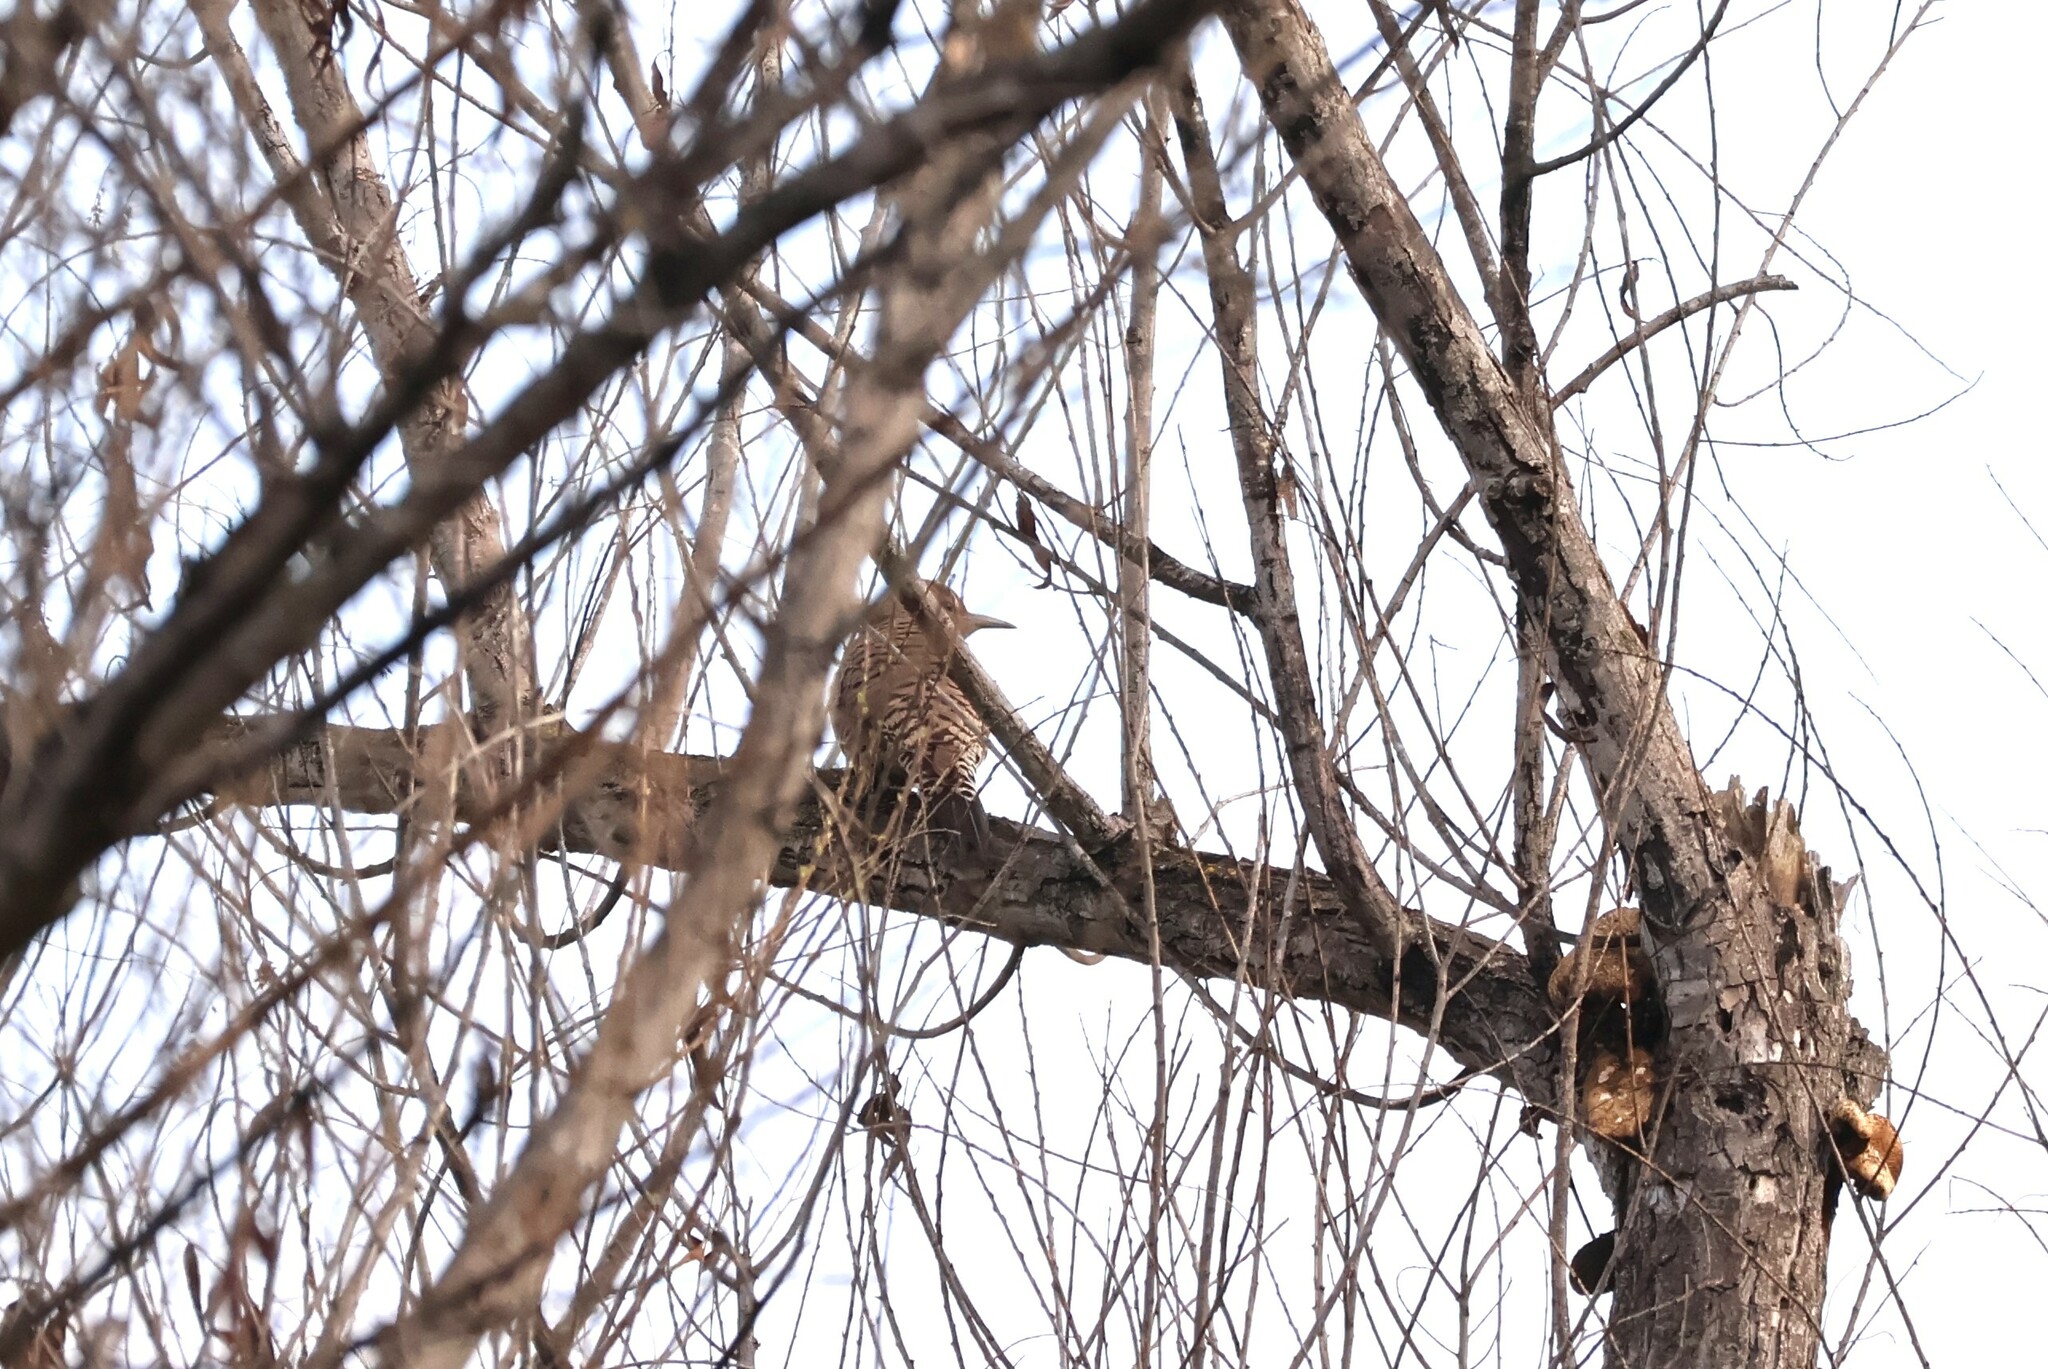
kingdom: Animalia
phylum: Chordata
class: Aves
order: Piciformes
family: Picidae
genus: Colaptes
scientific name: Colaptes auratus
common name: Northern flicker
